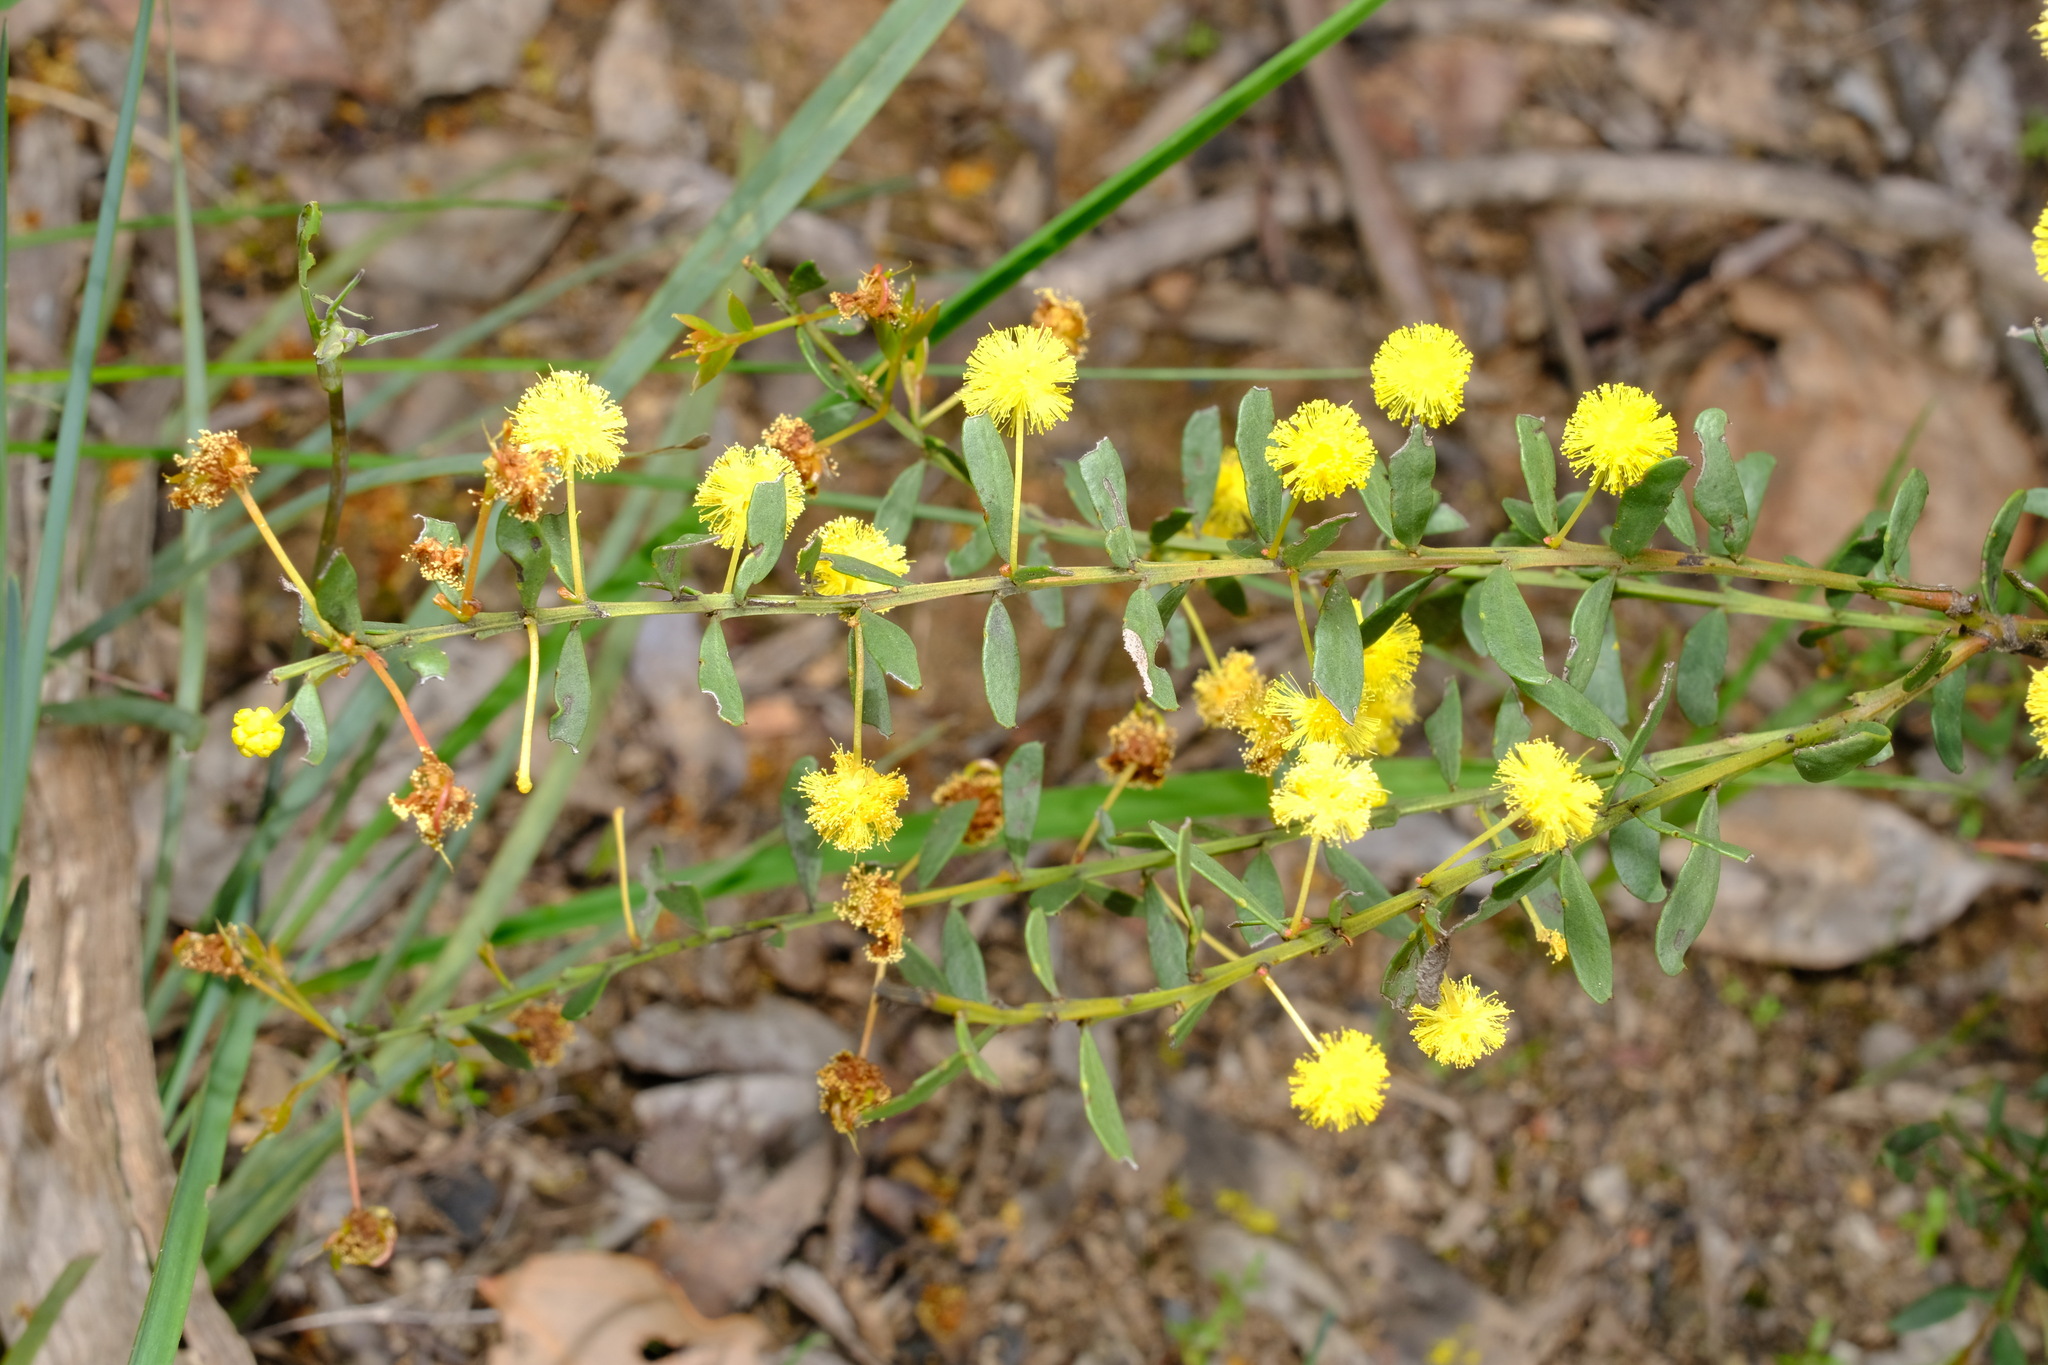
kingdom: Plantae
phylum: Tracheophyta
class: Magnoliopsida
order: Fabales
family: Fabaceae
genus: Acacia
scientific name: Acacia acinacea
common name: Gold-dust acacia
